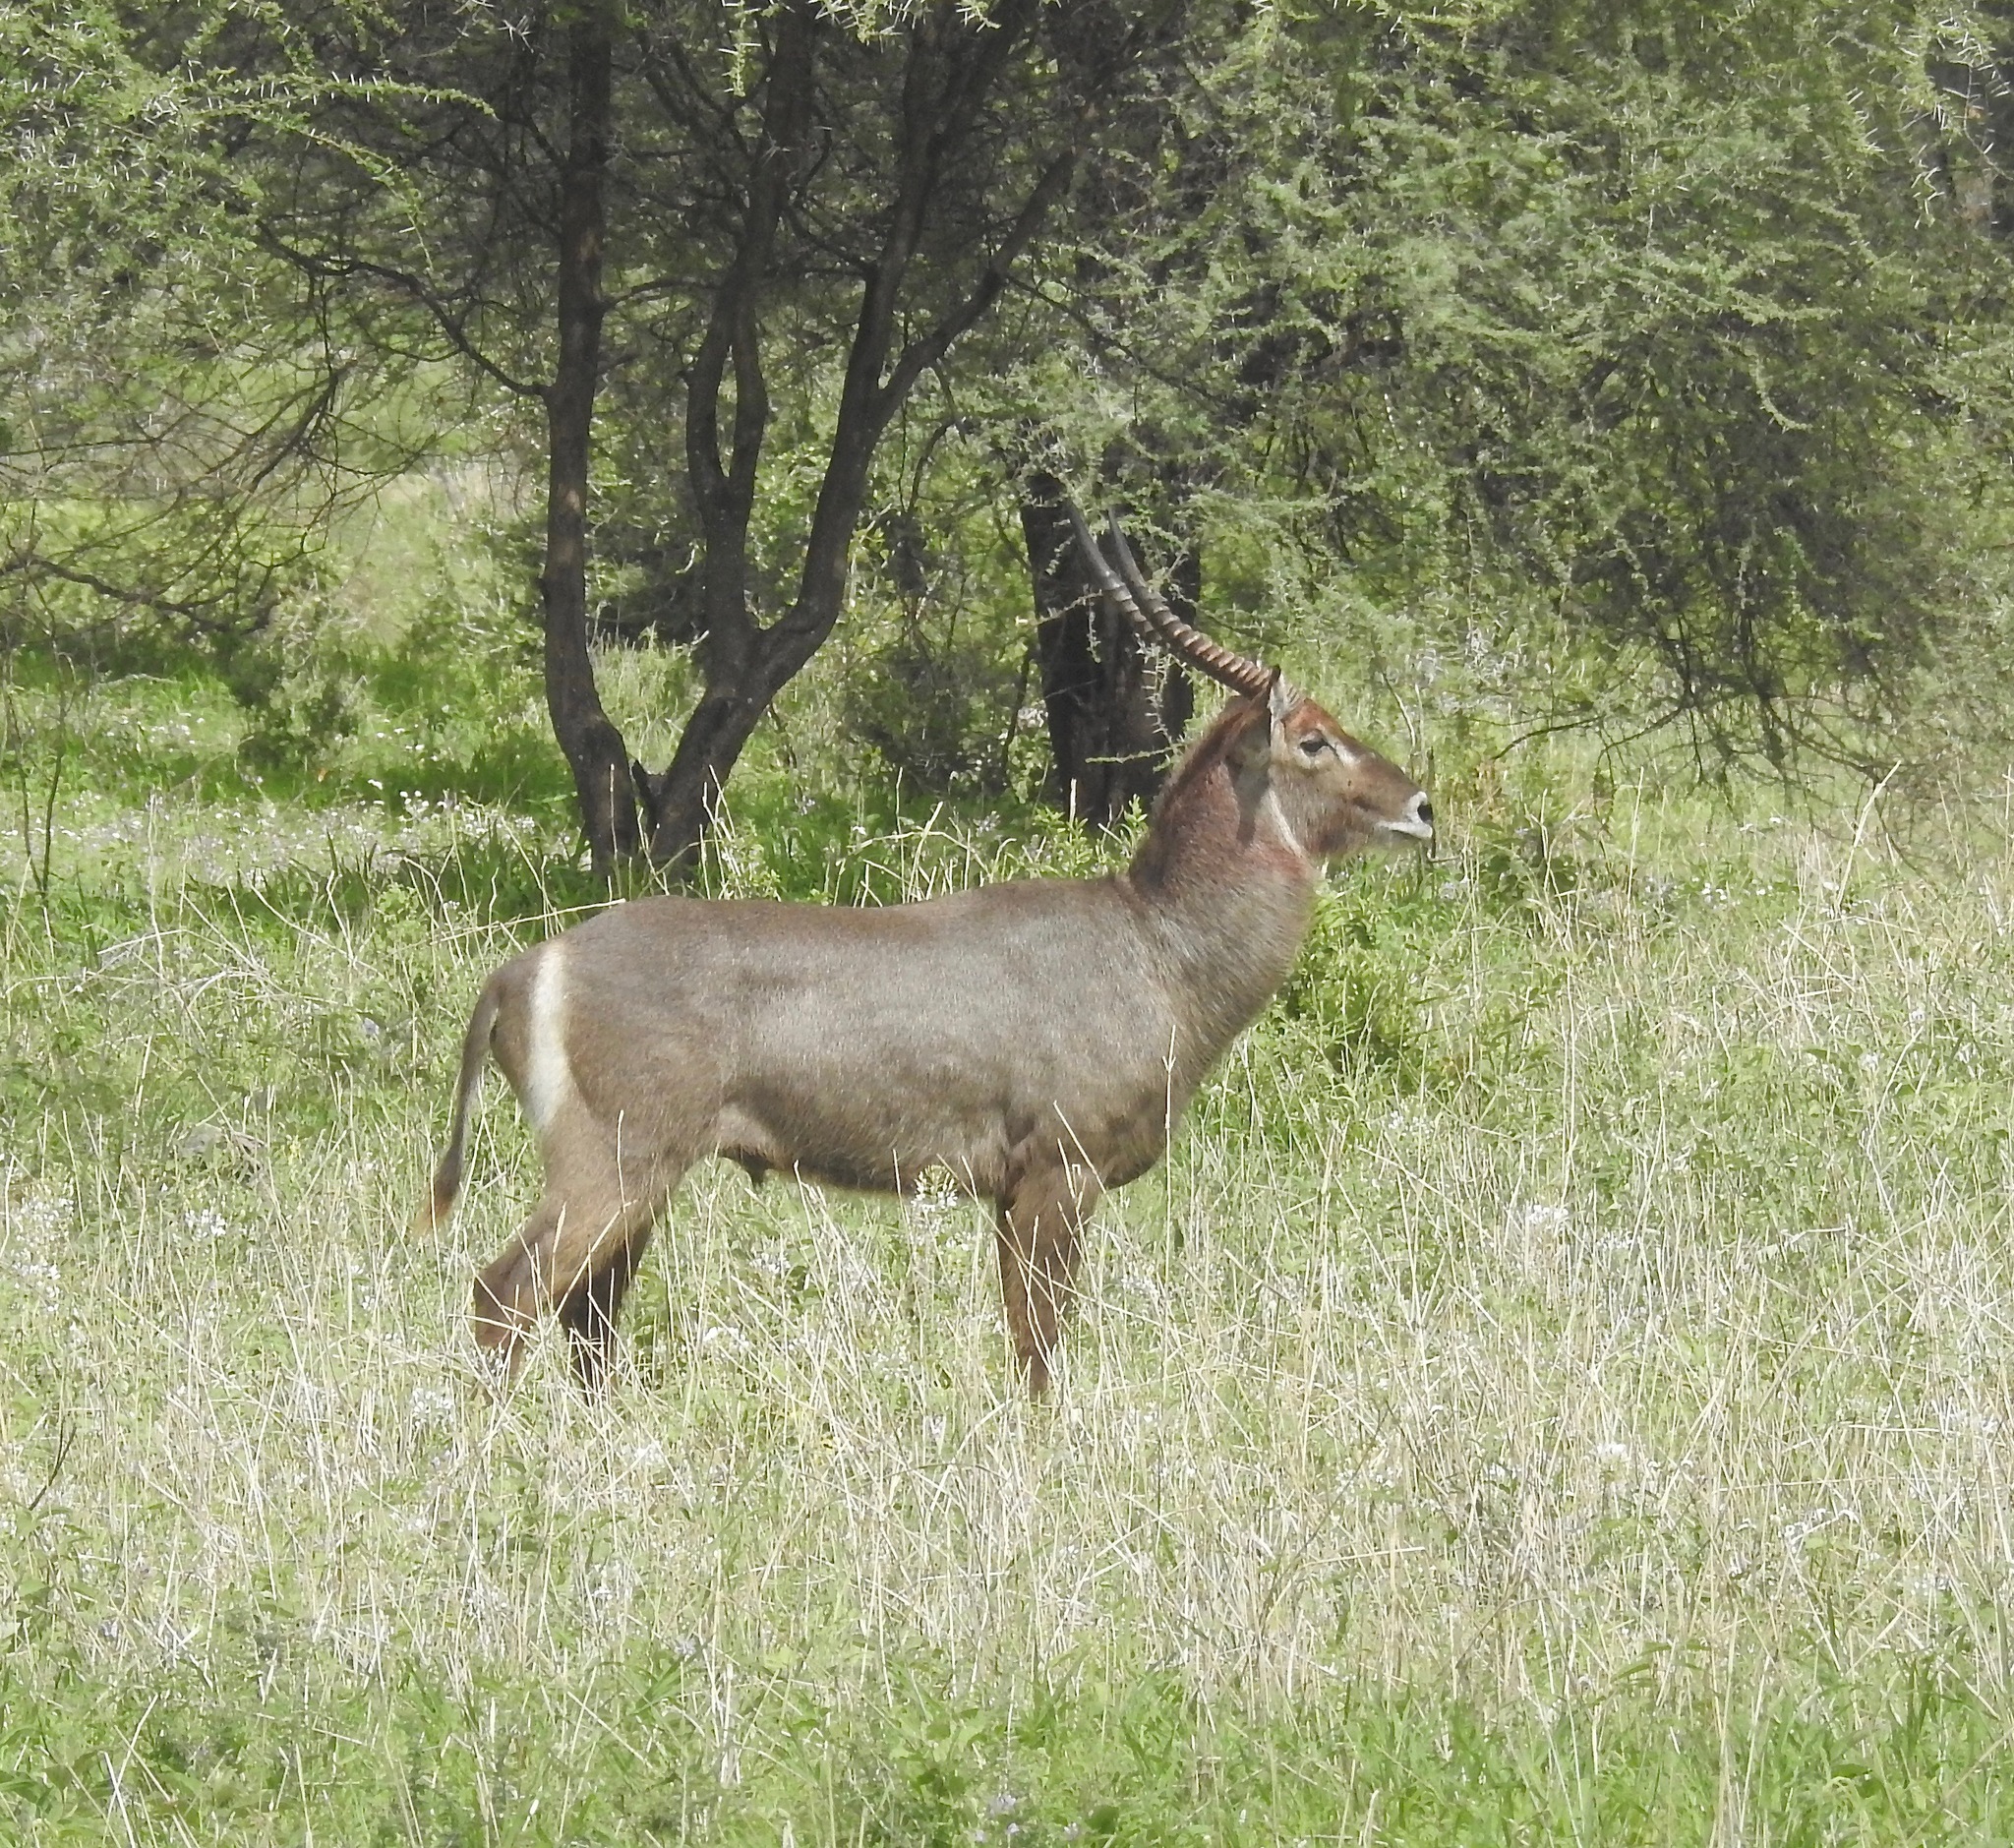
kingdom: Animalia
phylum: Chordata
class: Mammalia
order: Artiodactyla
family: Bovidae
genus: Kobus
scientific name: Kobus ellipsiprymnus
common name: Waterbuck
